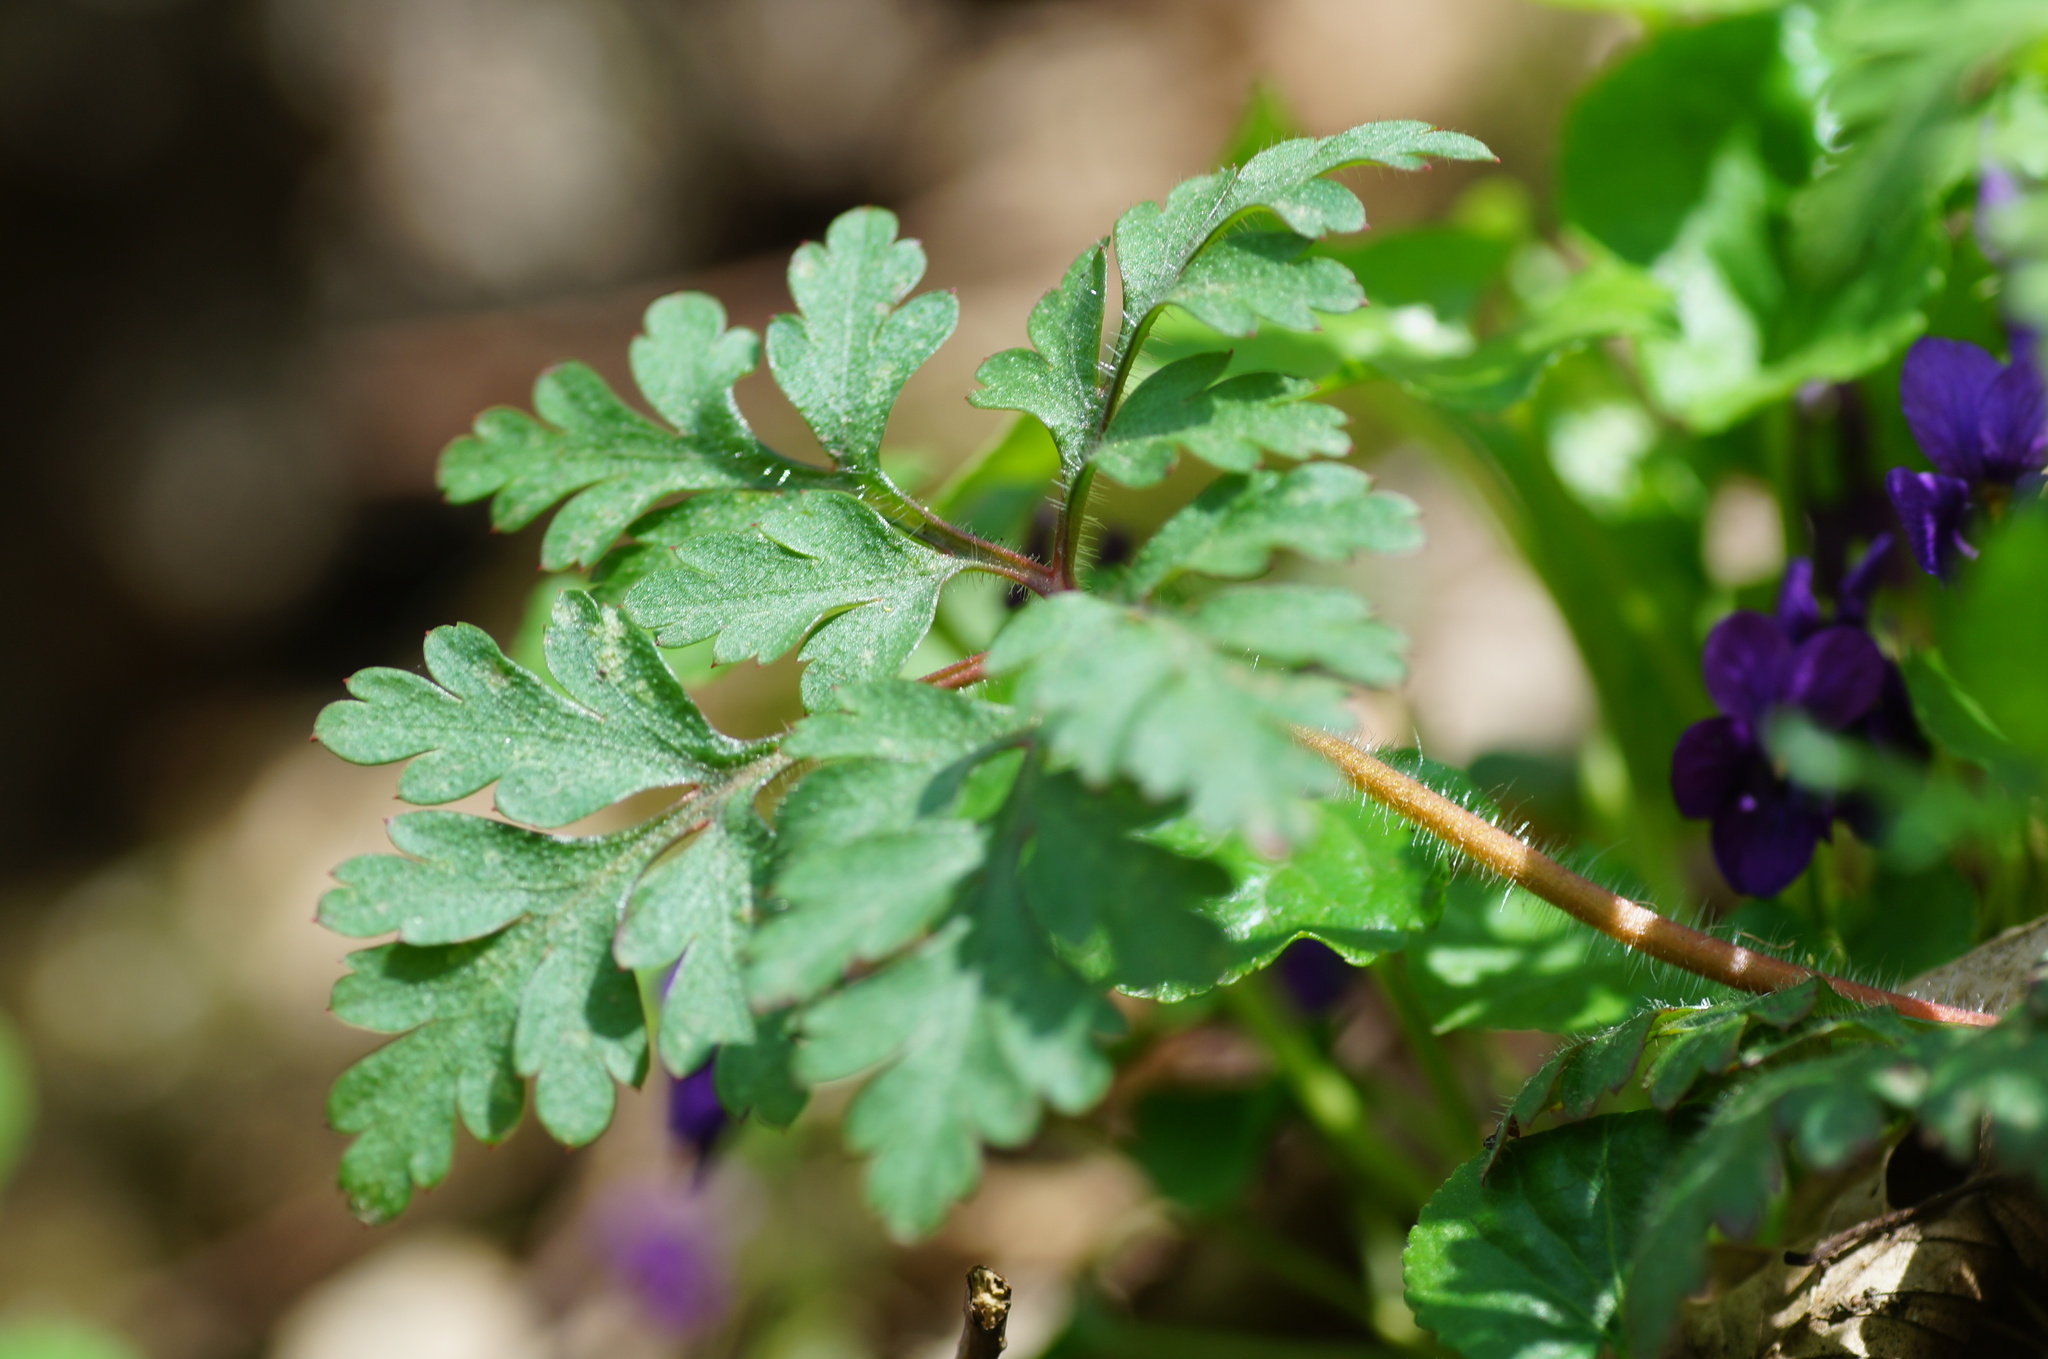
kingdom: Plantae
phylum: Tracheophyta
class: Magnoliopsida
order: Geraniales
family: Geraniaceae
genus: Geranium
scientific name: Geranium robertianum
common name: Herb-robert
